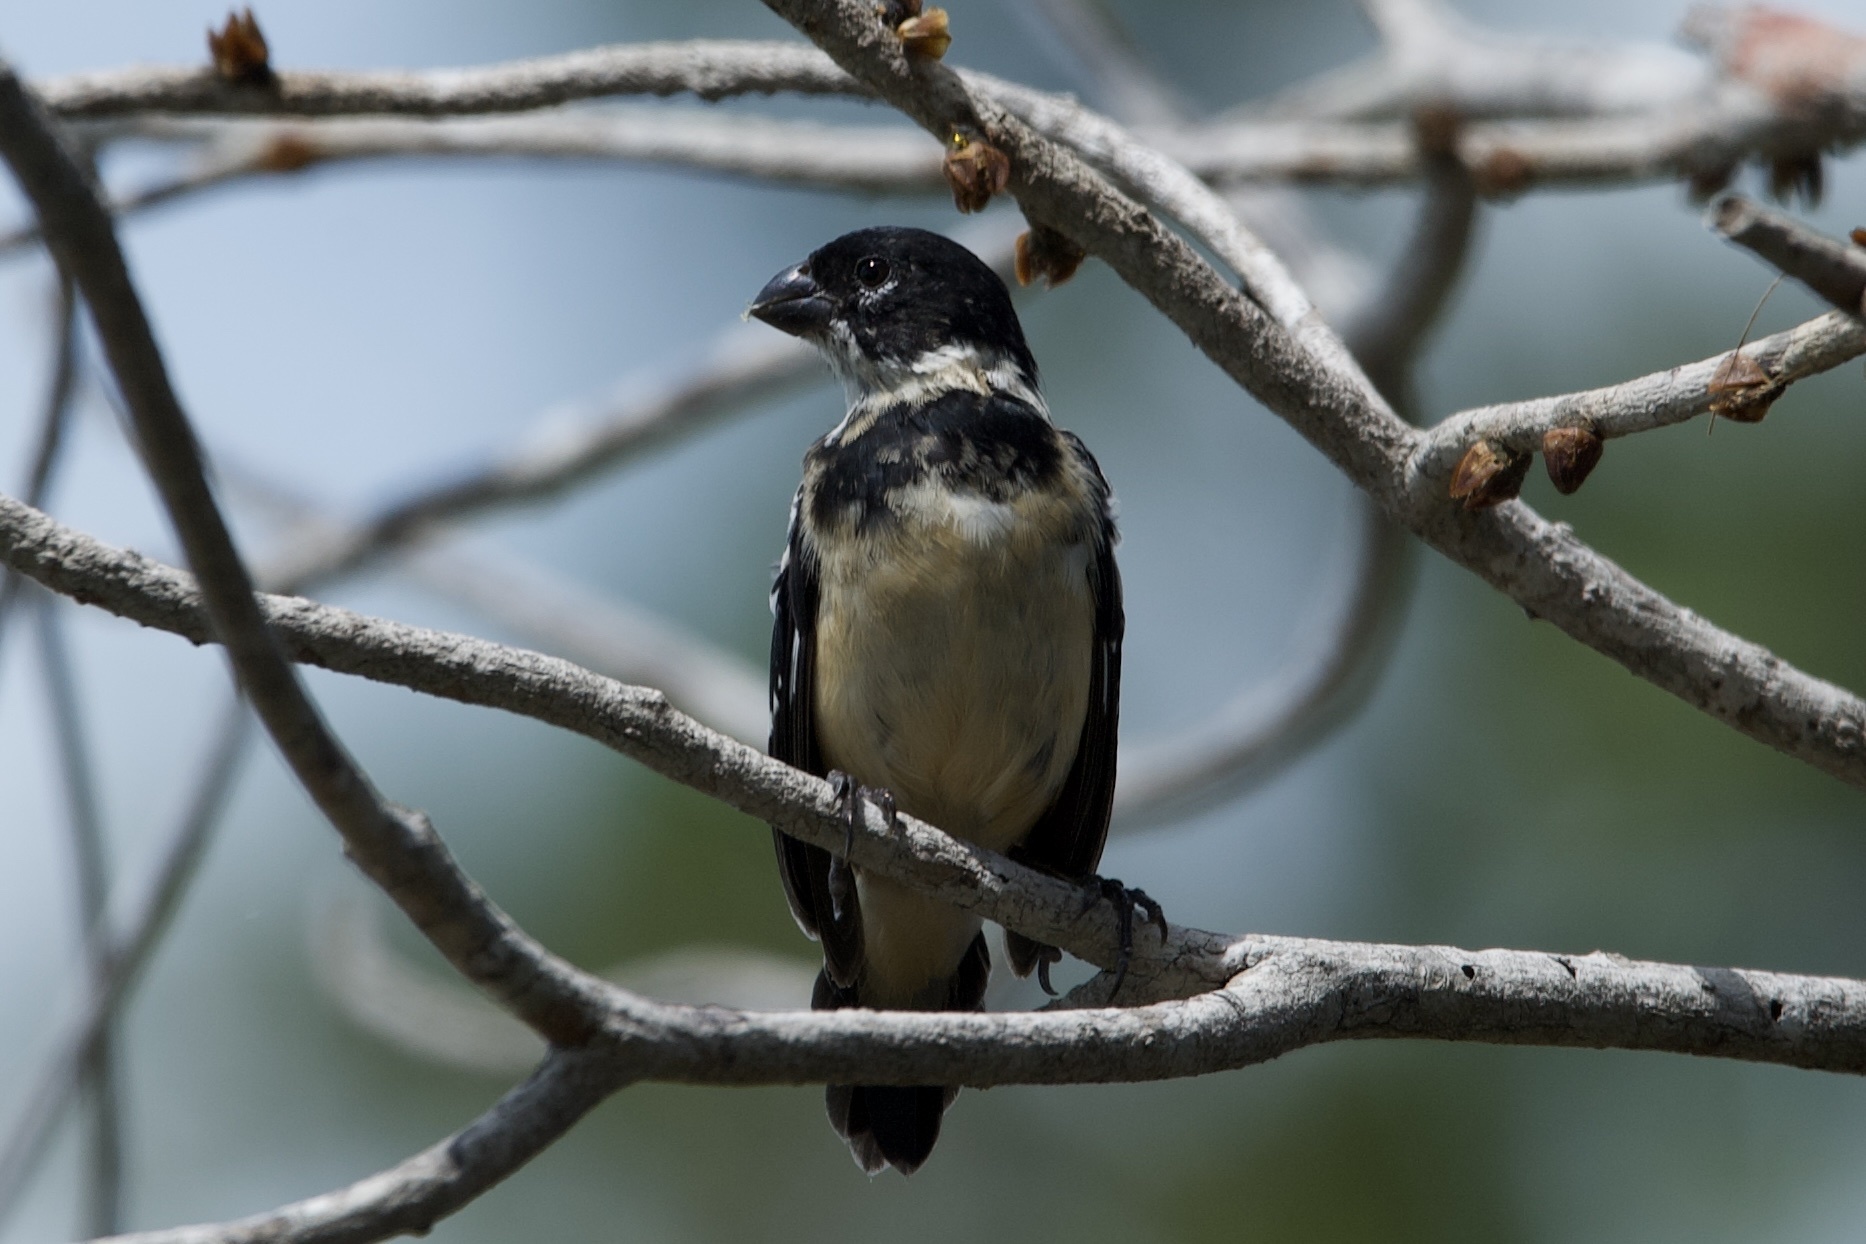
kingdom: Animalia
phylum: Chordata
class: Aves
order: Passeriformes
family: Thraupidae
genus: Sporophila
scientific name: Sporophila morelleti
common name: Morelet's seedeater
